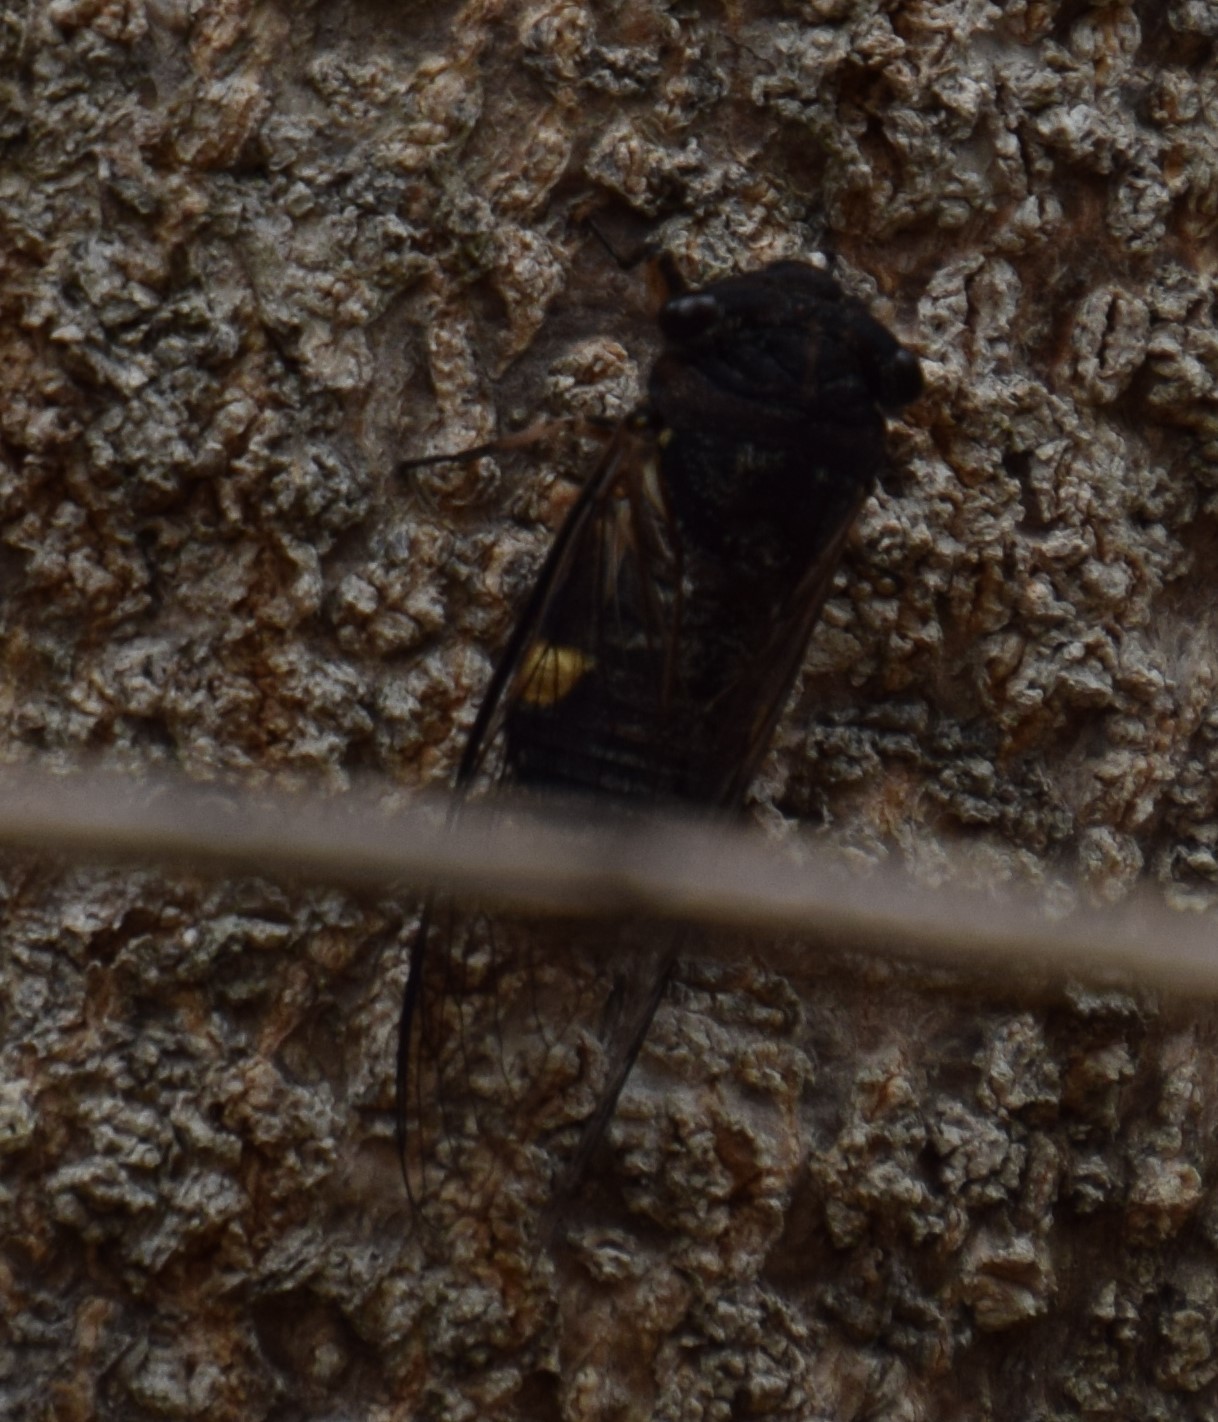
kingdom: Animalia
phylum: Arthropoda
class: Insecta
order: Hemiptera
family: Cicadidae
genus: Psaltoda
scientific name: Psaltoda harrisii
